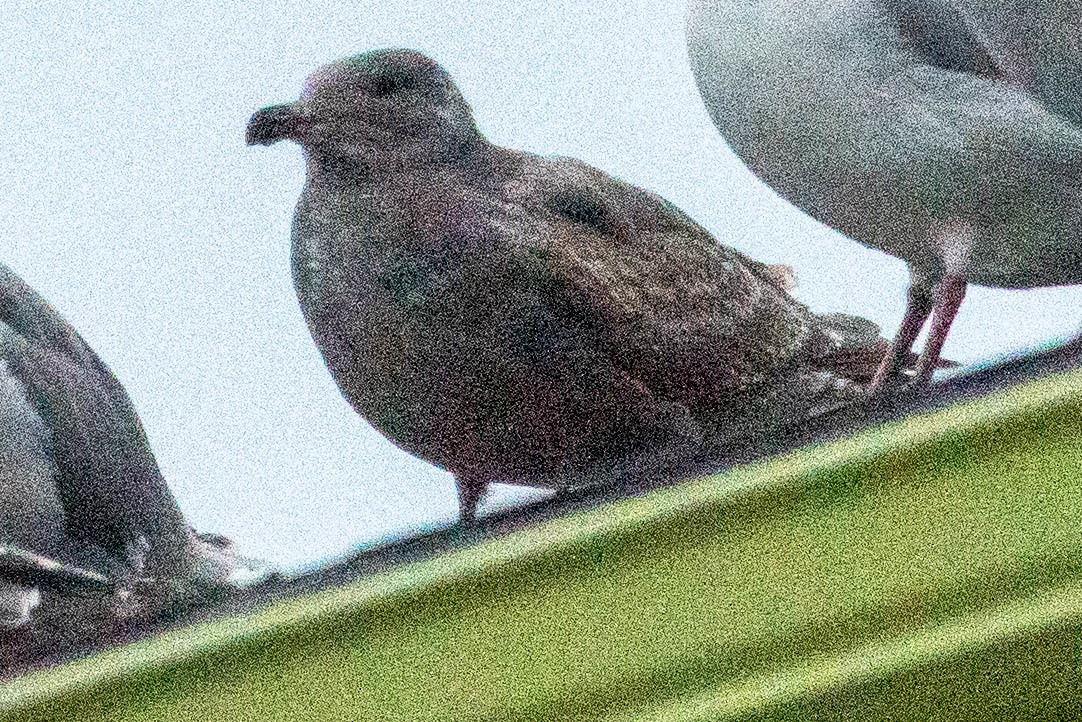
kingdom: Animalia
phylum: Chordata
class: Aves
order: Charadriiformes
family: Laridae
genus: Larus
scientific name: Larus occidentalis
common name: Western gull
